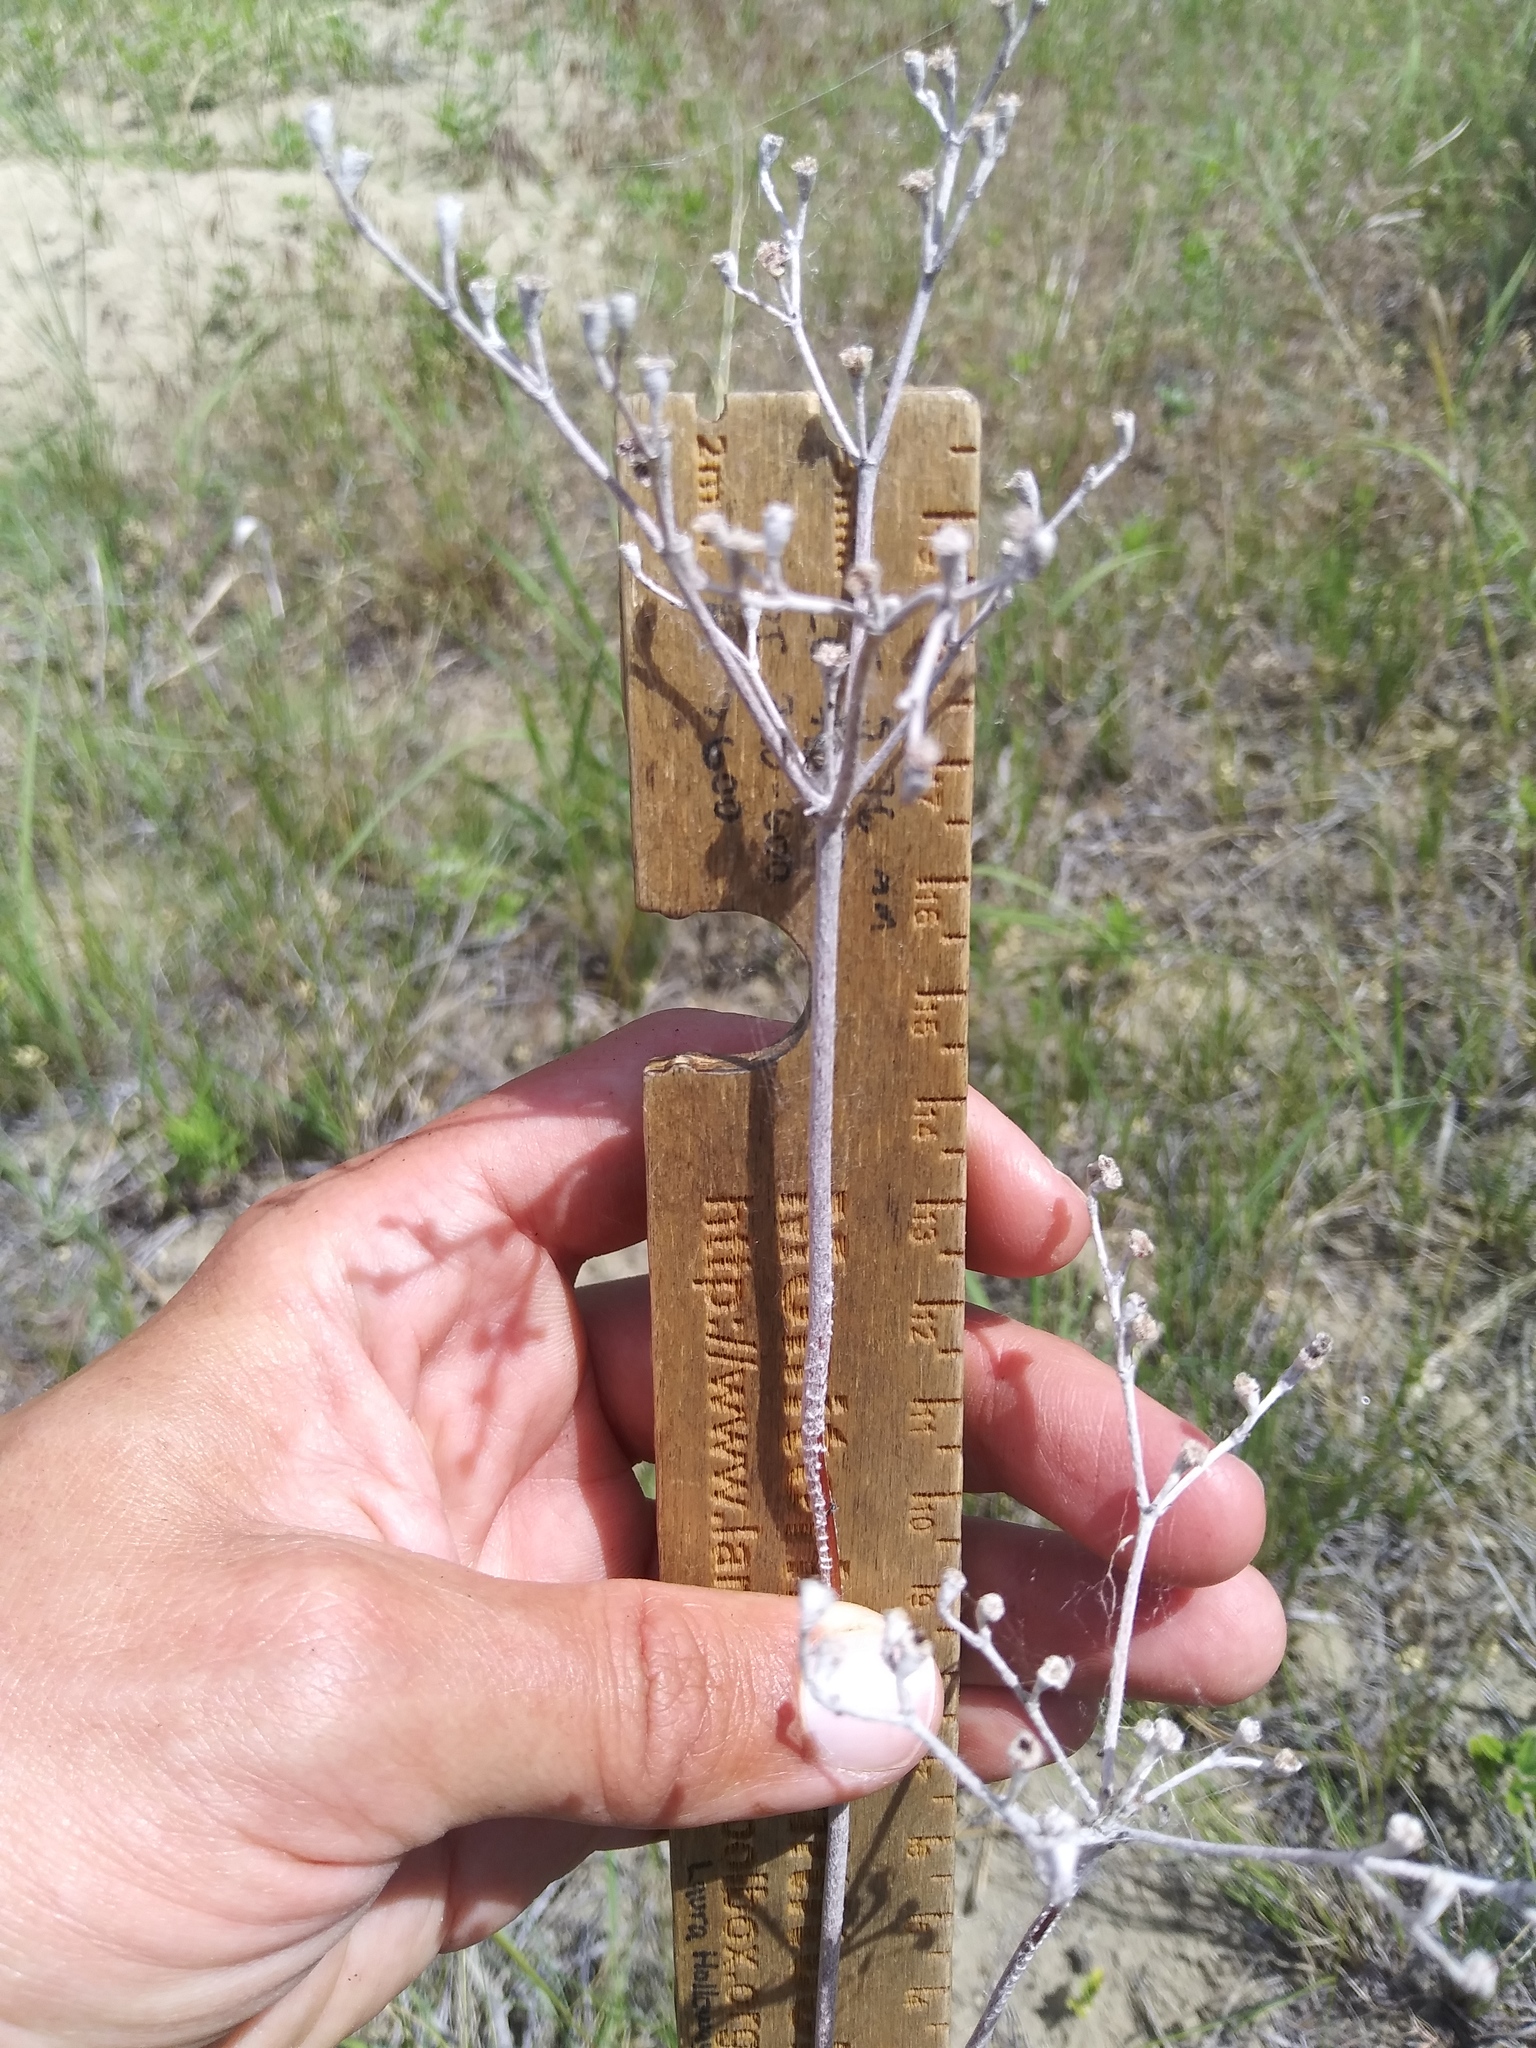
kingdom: Plantae
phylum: Tracheophyta
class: Magnoliopsida
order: Caryophyllales
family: Polygonaceae
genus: Eriogonum
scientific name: Eriogonum annuum
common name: Annual wild buckwheat
